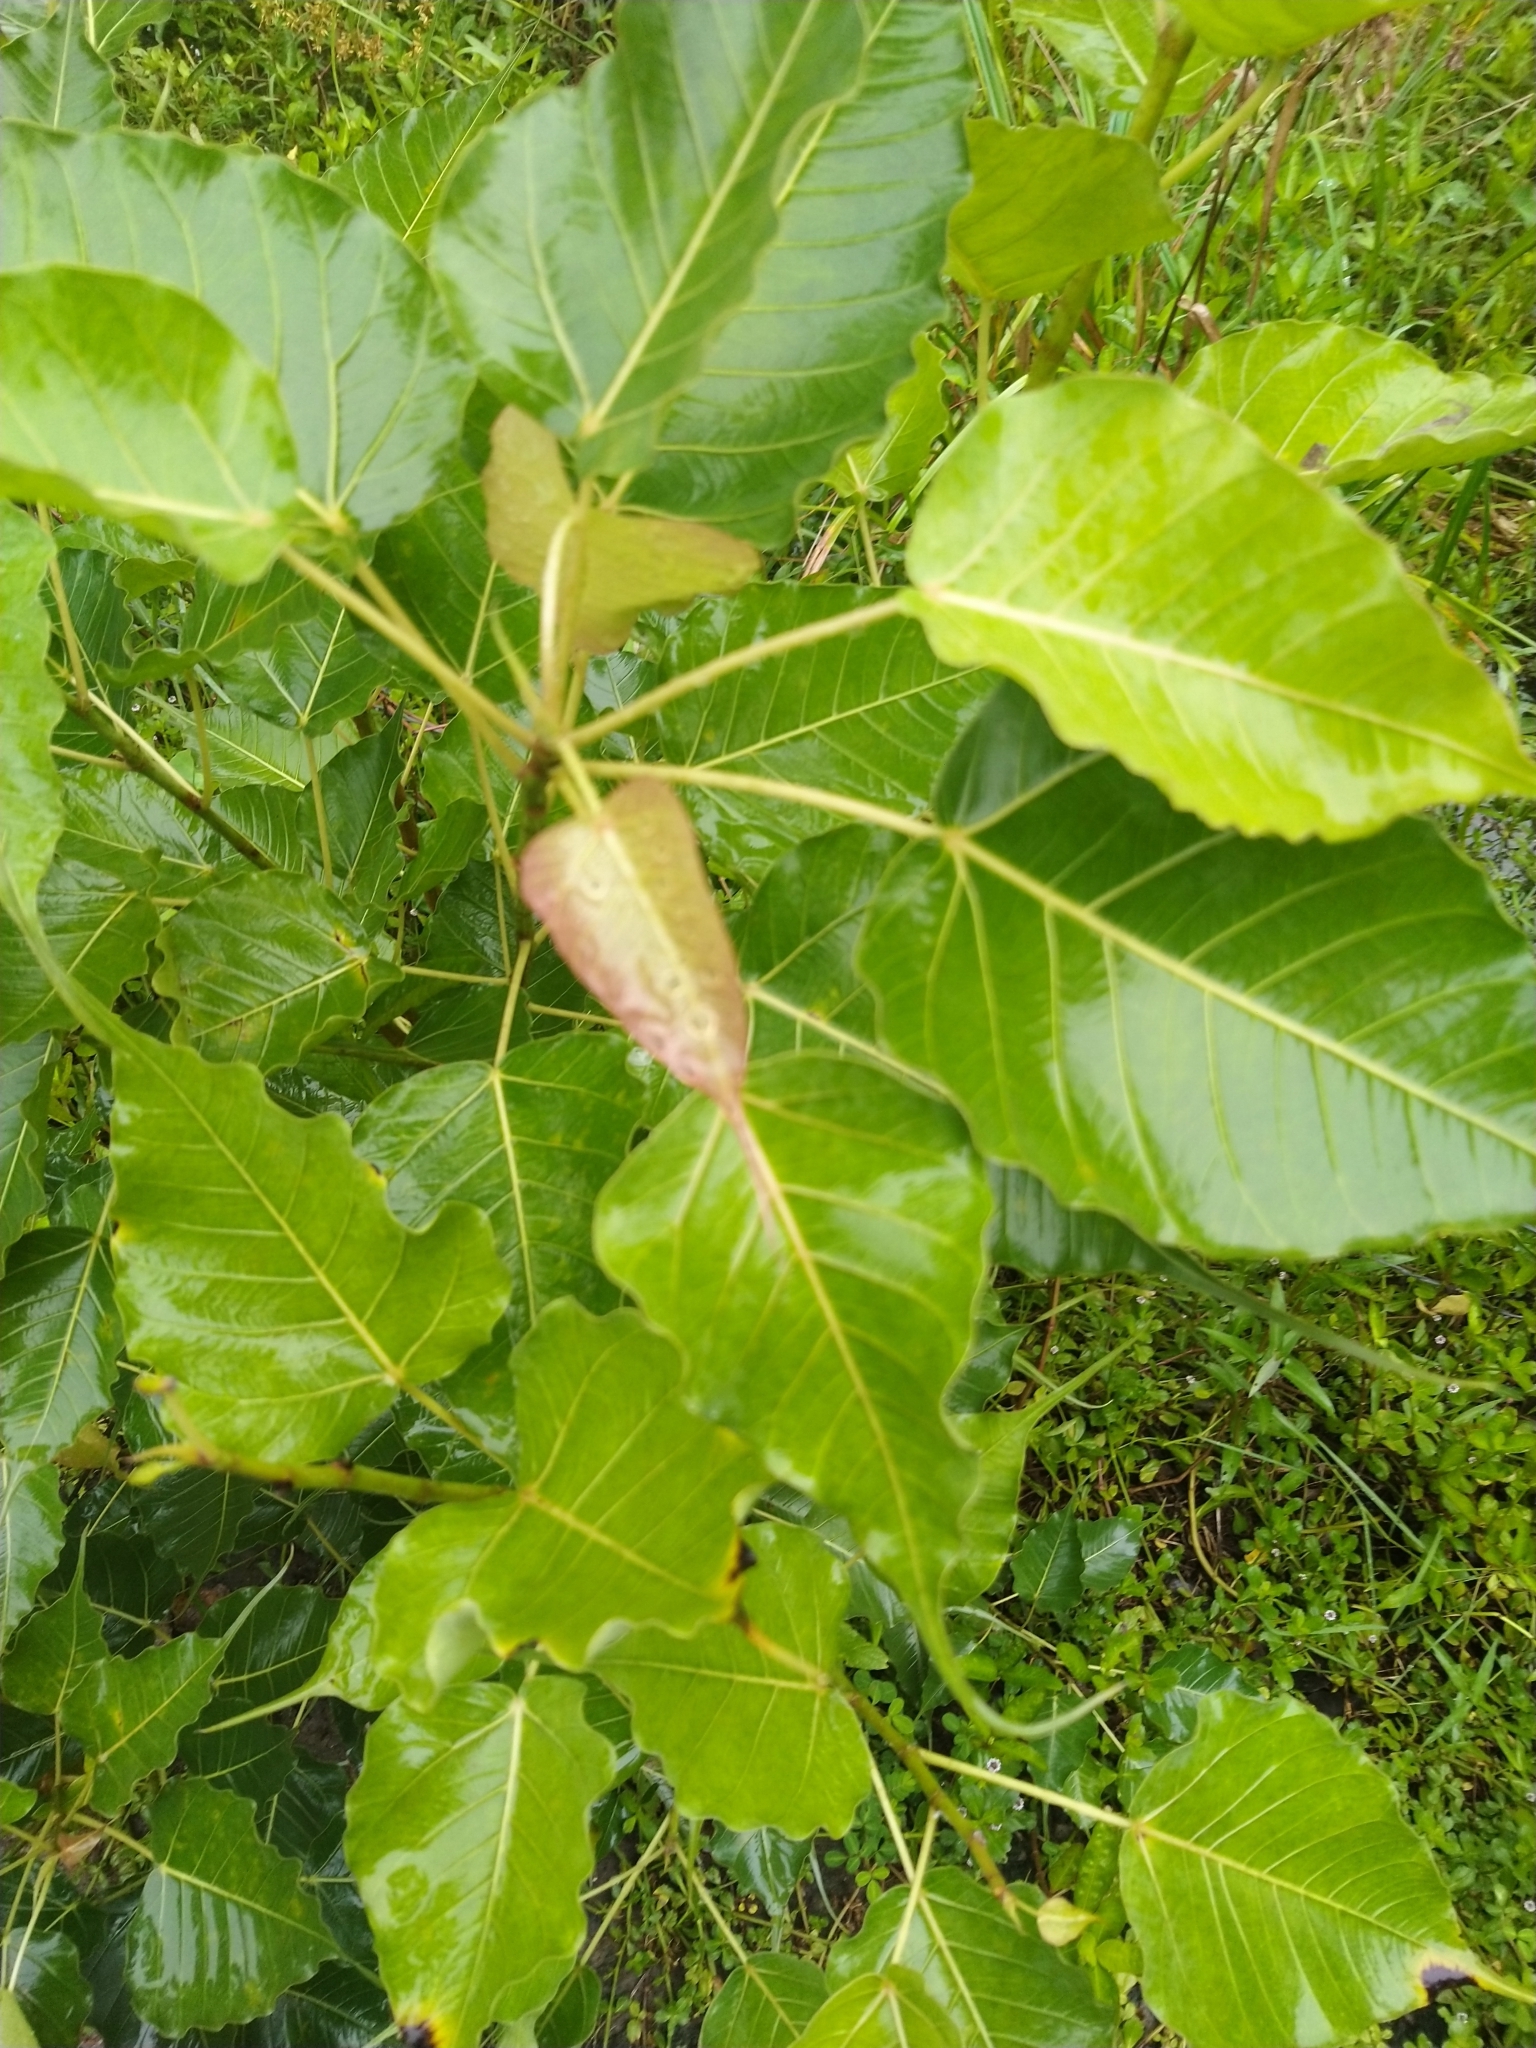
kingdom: Plantae
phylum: Tracheophyta
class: Magnoliopsida
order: Rosales
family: Moraceae
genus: Ficus
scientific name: Ficus religiosa
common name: Bodhi tree
